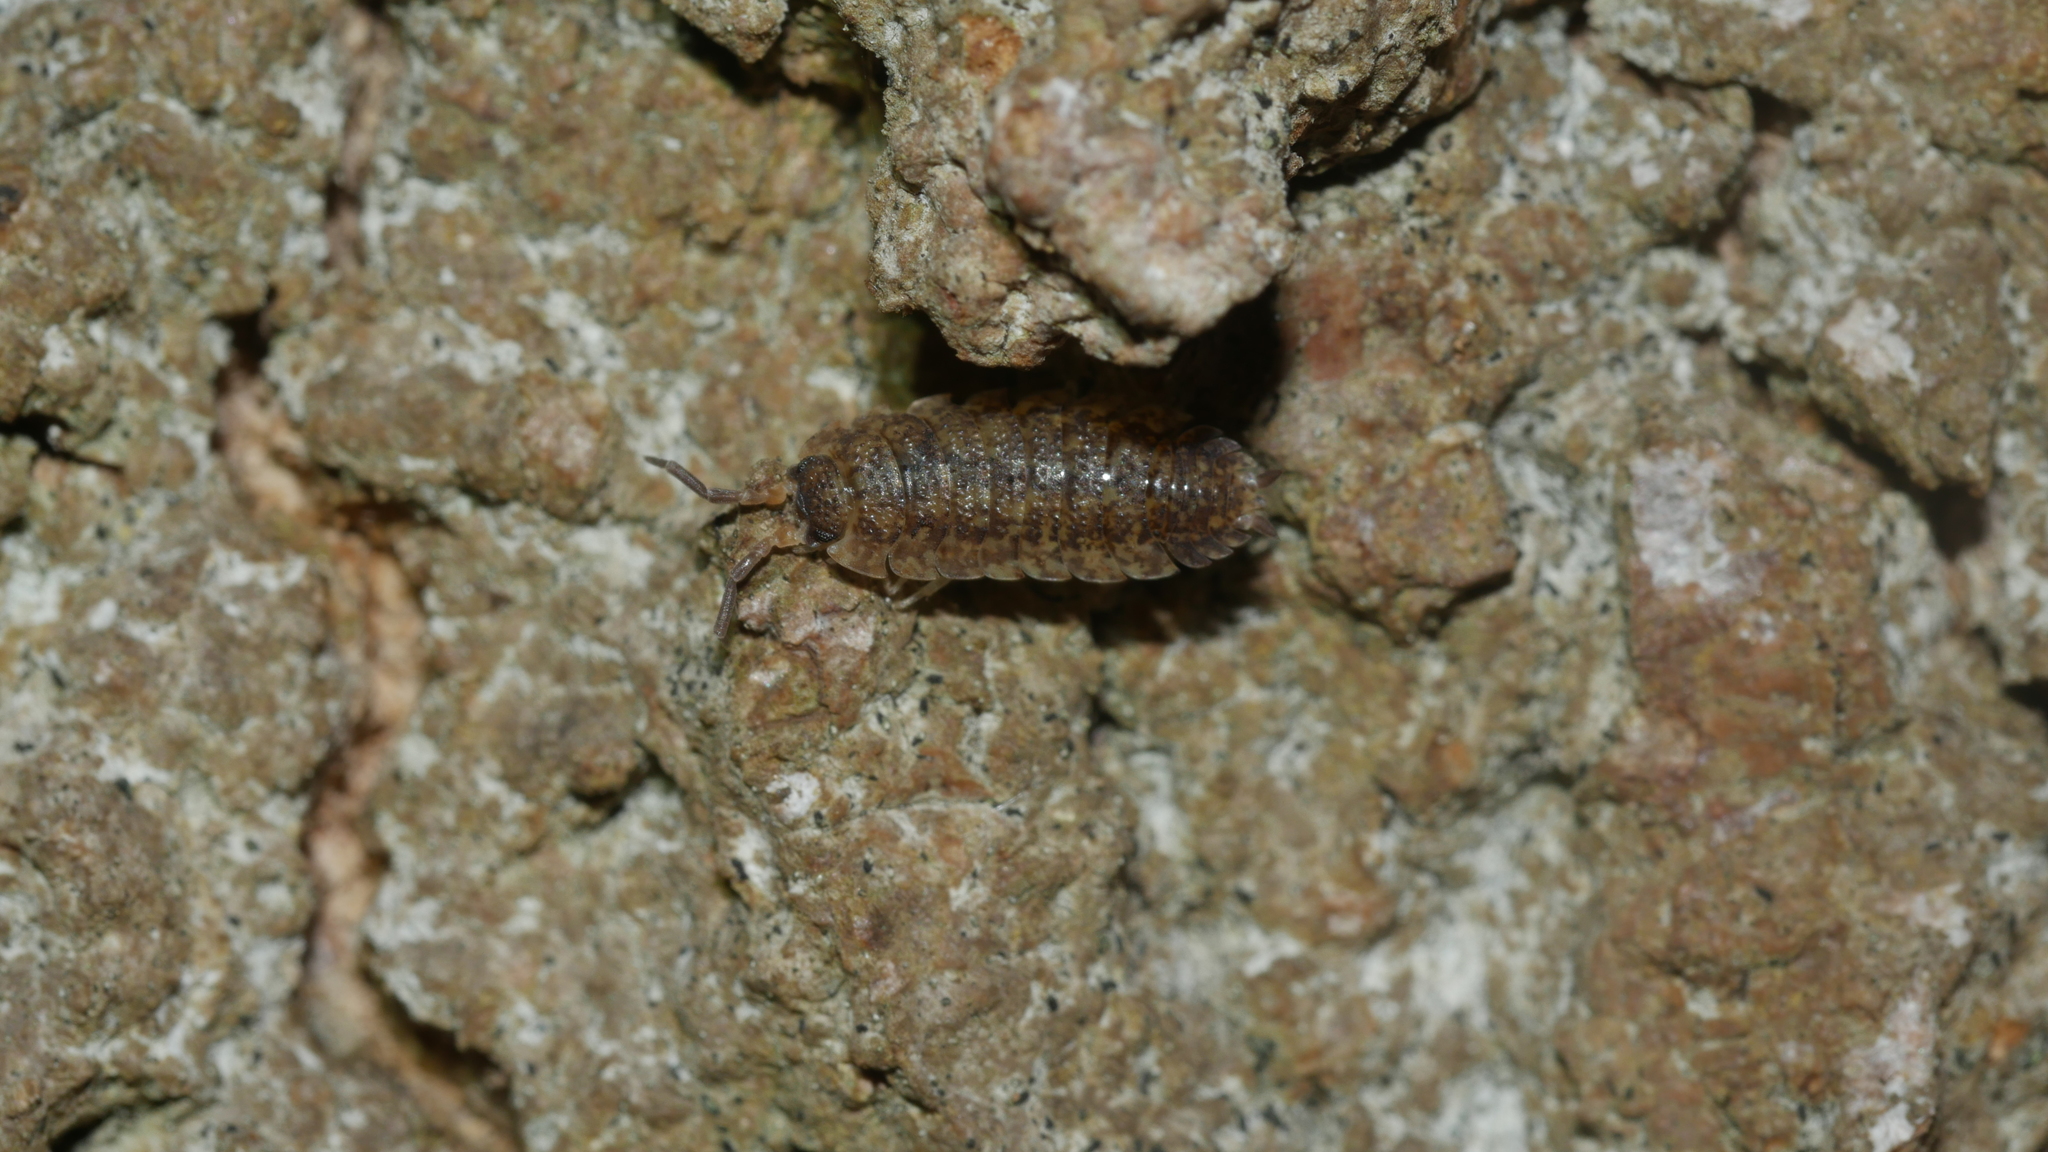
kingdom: Animalia
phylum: Arthropoda
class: Malacostraca
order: Isopoda
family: Porcellionidae
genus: Porcellio
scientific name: Porcellio scaber
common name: Common rough woodlouse
